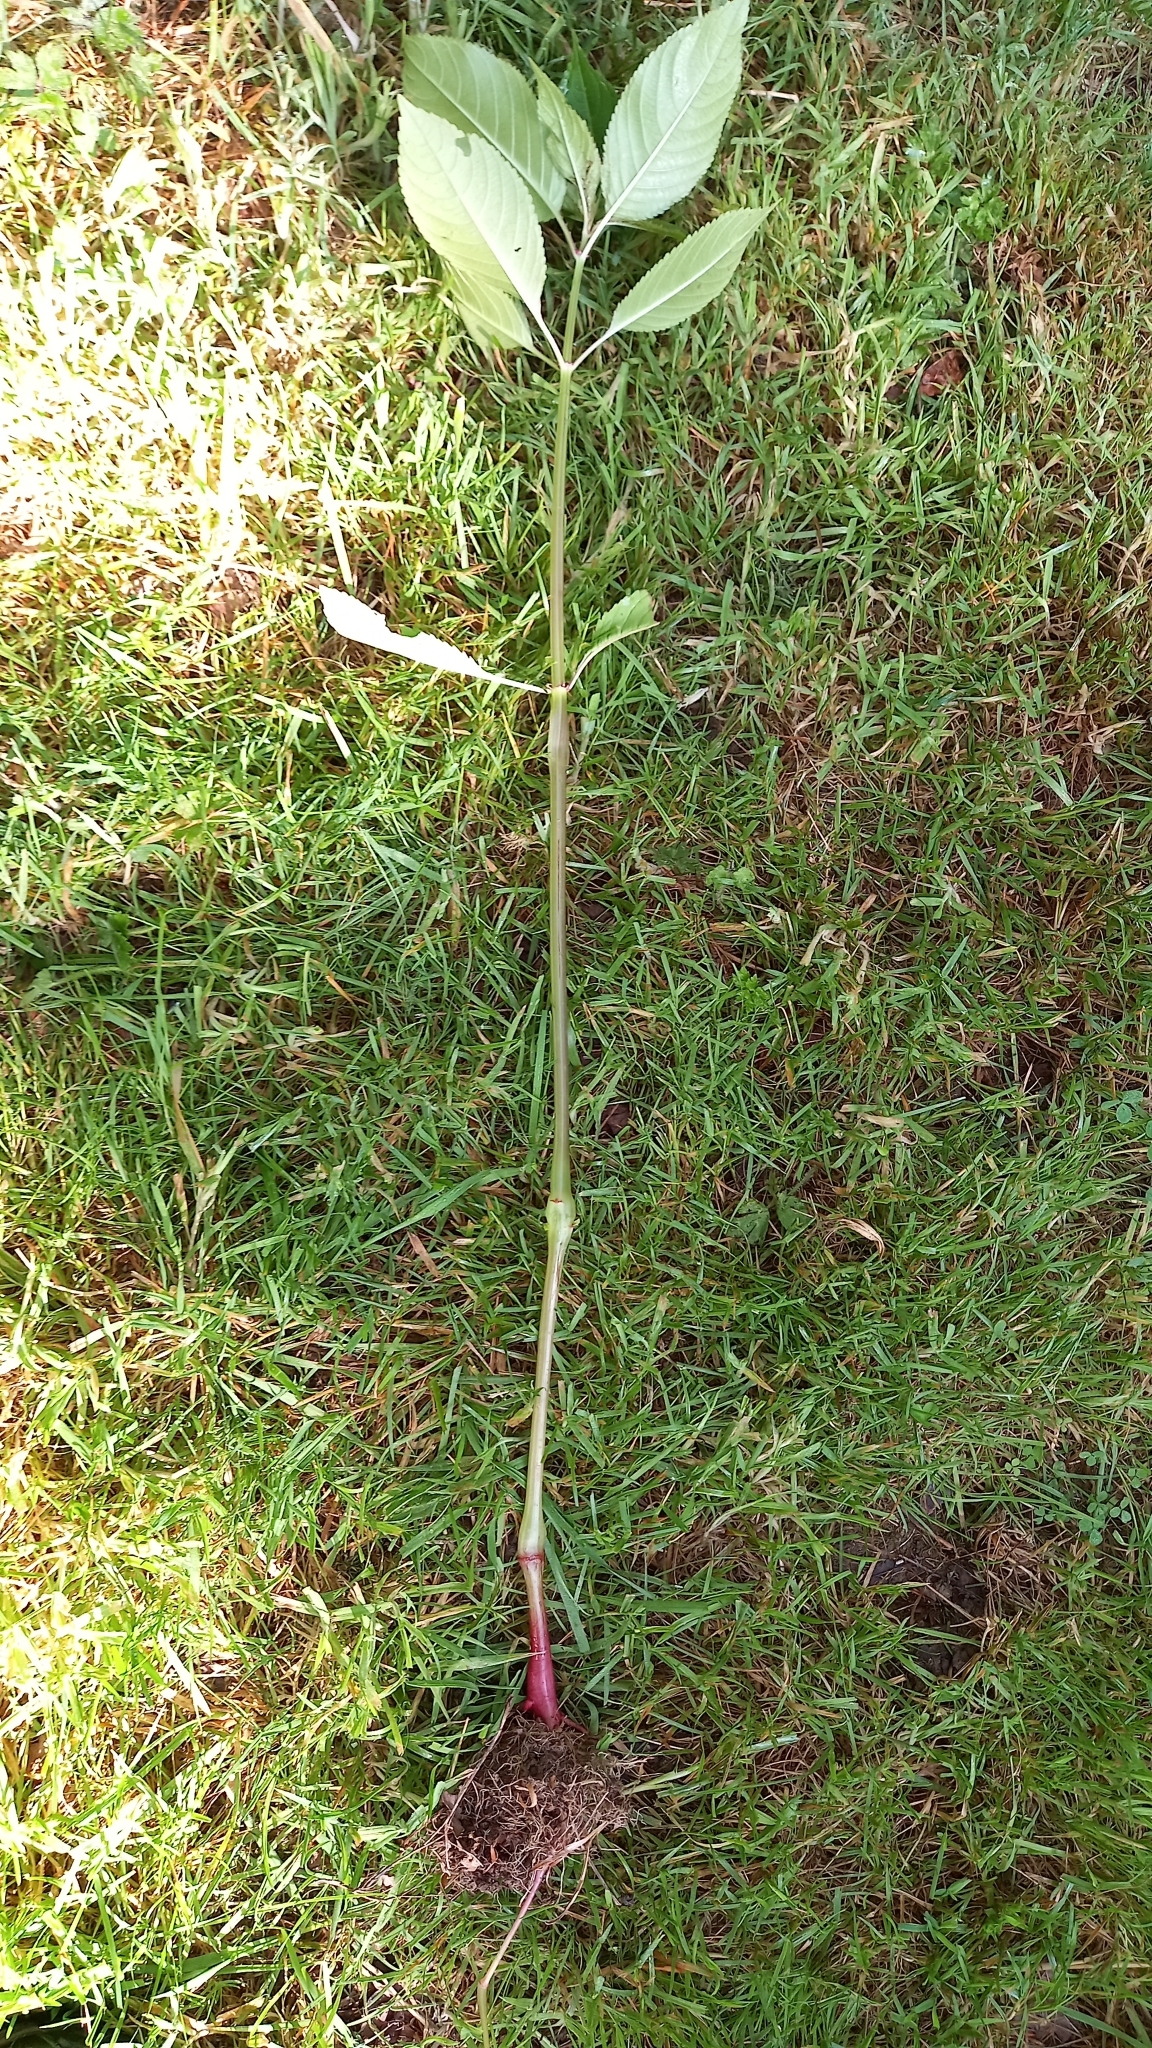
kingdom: Plantae
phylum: Tracheophyta
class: Magnoliopsida
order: Ericales
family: Balsaminaceae
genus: Impatiens
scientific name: Impatiens glandulifera
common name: Himalayan balsam
